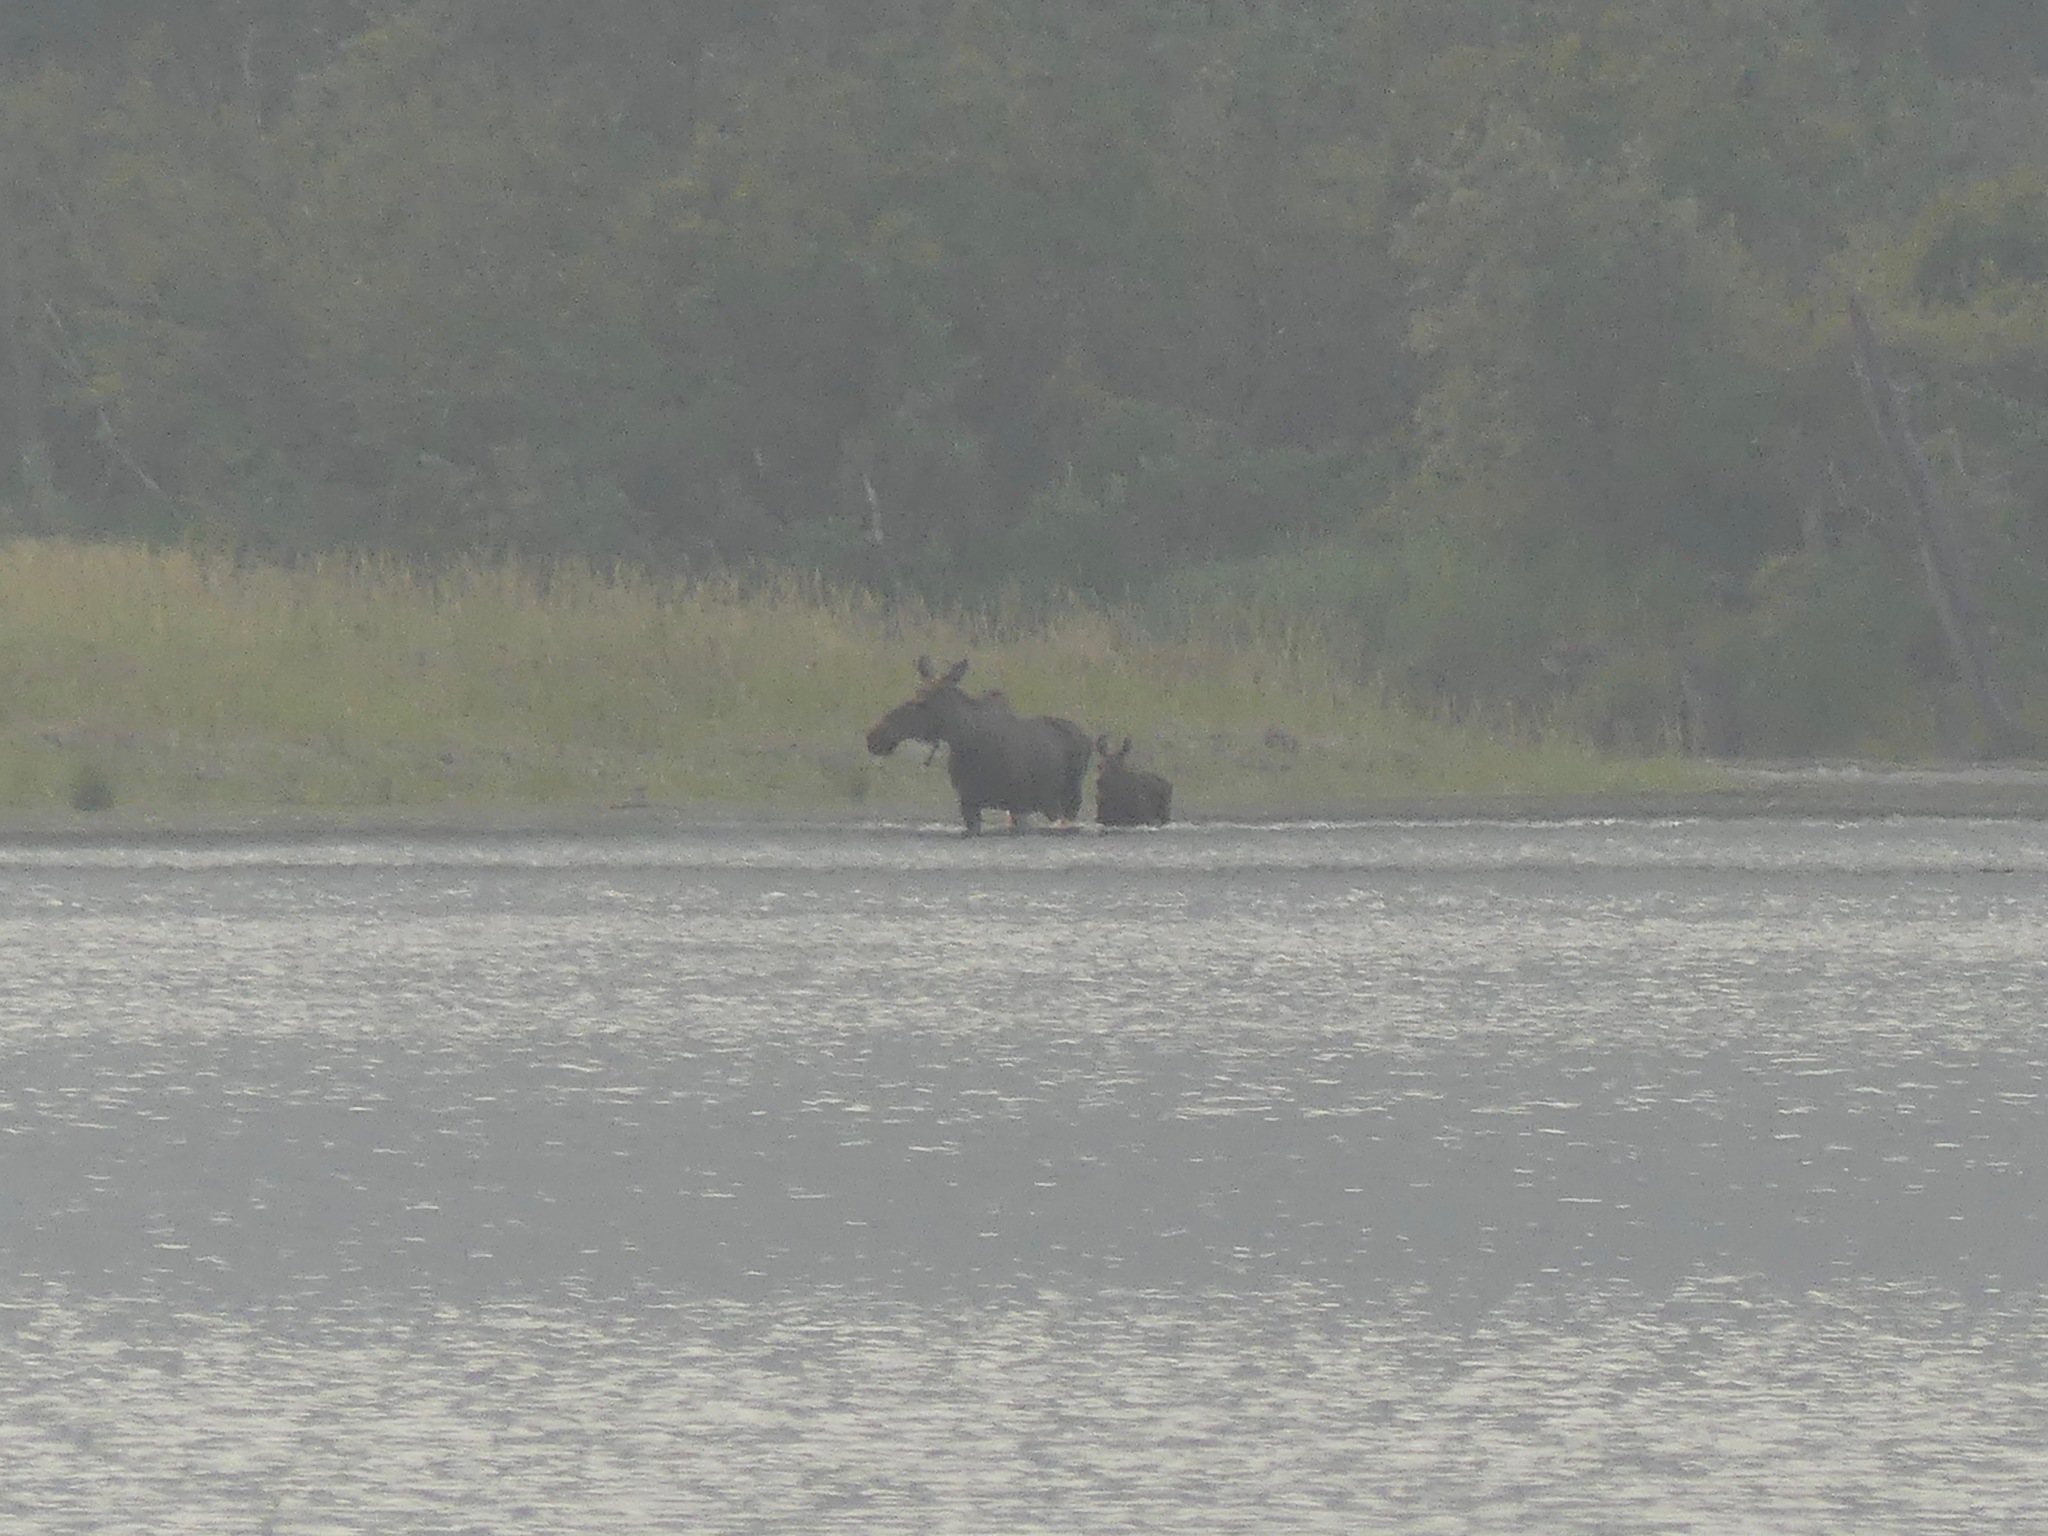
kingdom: Animalia
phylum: Chordata
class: Mammalia
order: Artiodactyla
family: Cervidae
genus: Alces
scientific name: Alces alces
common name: Moose
